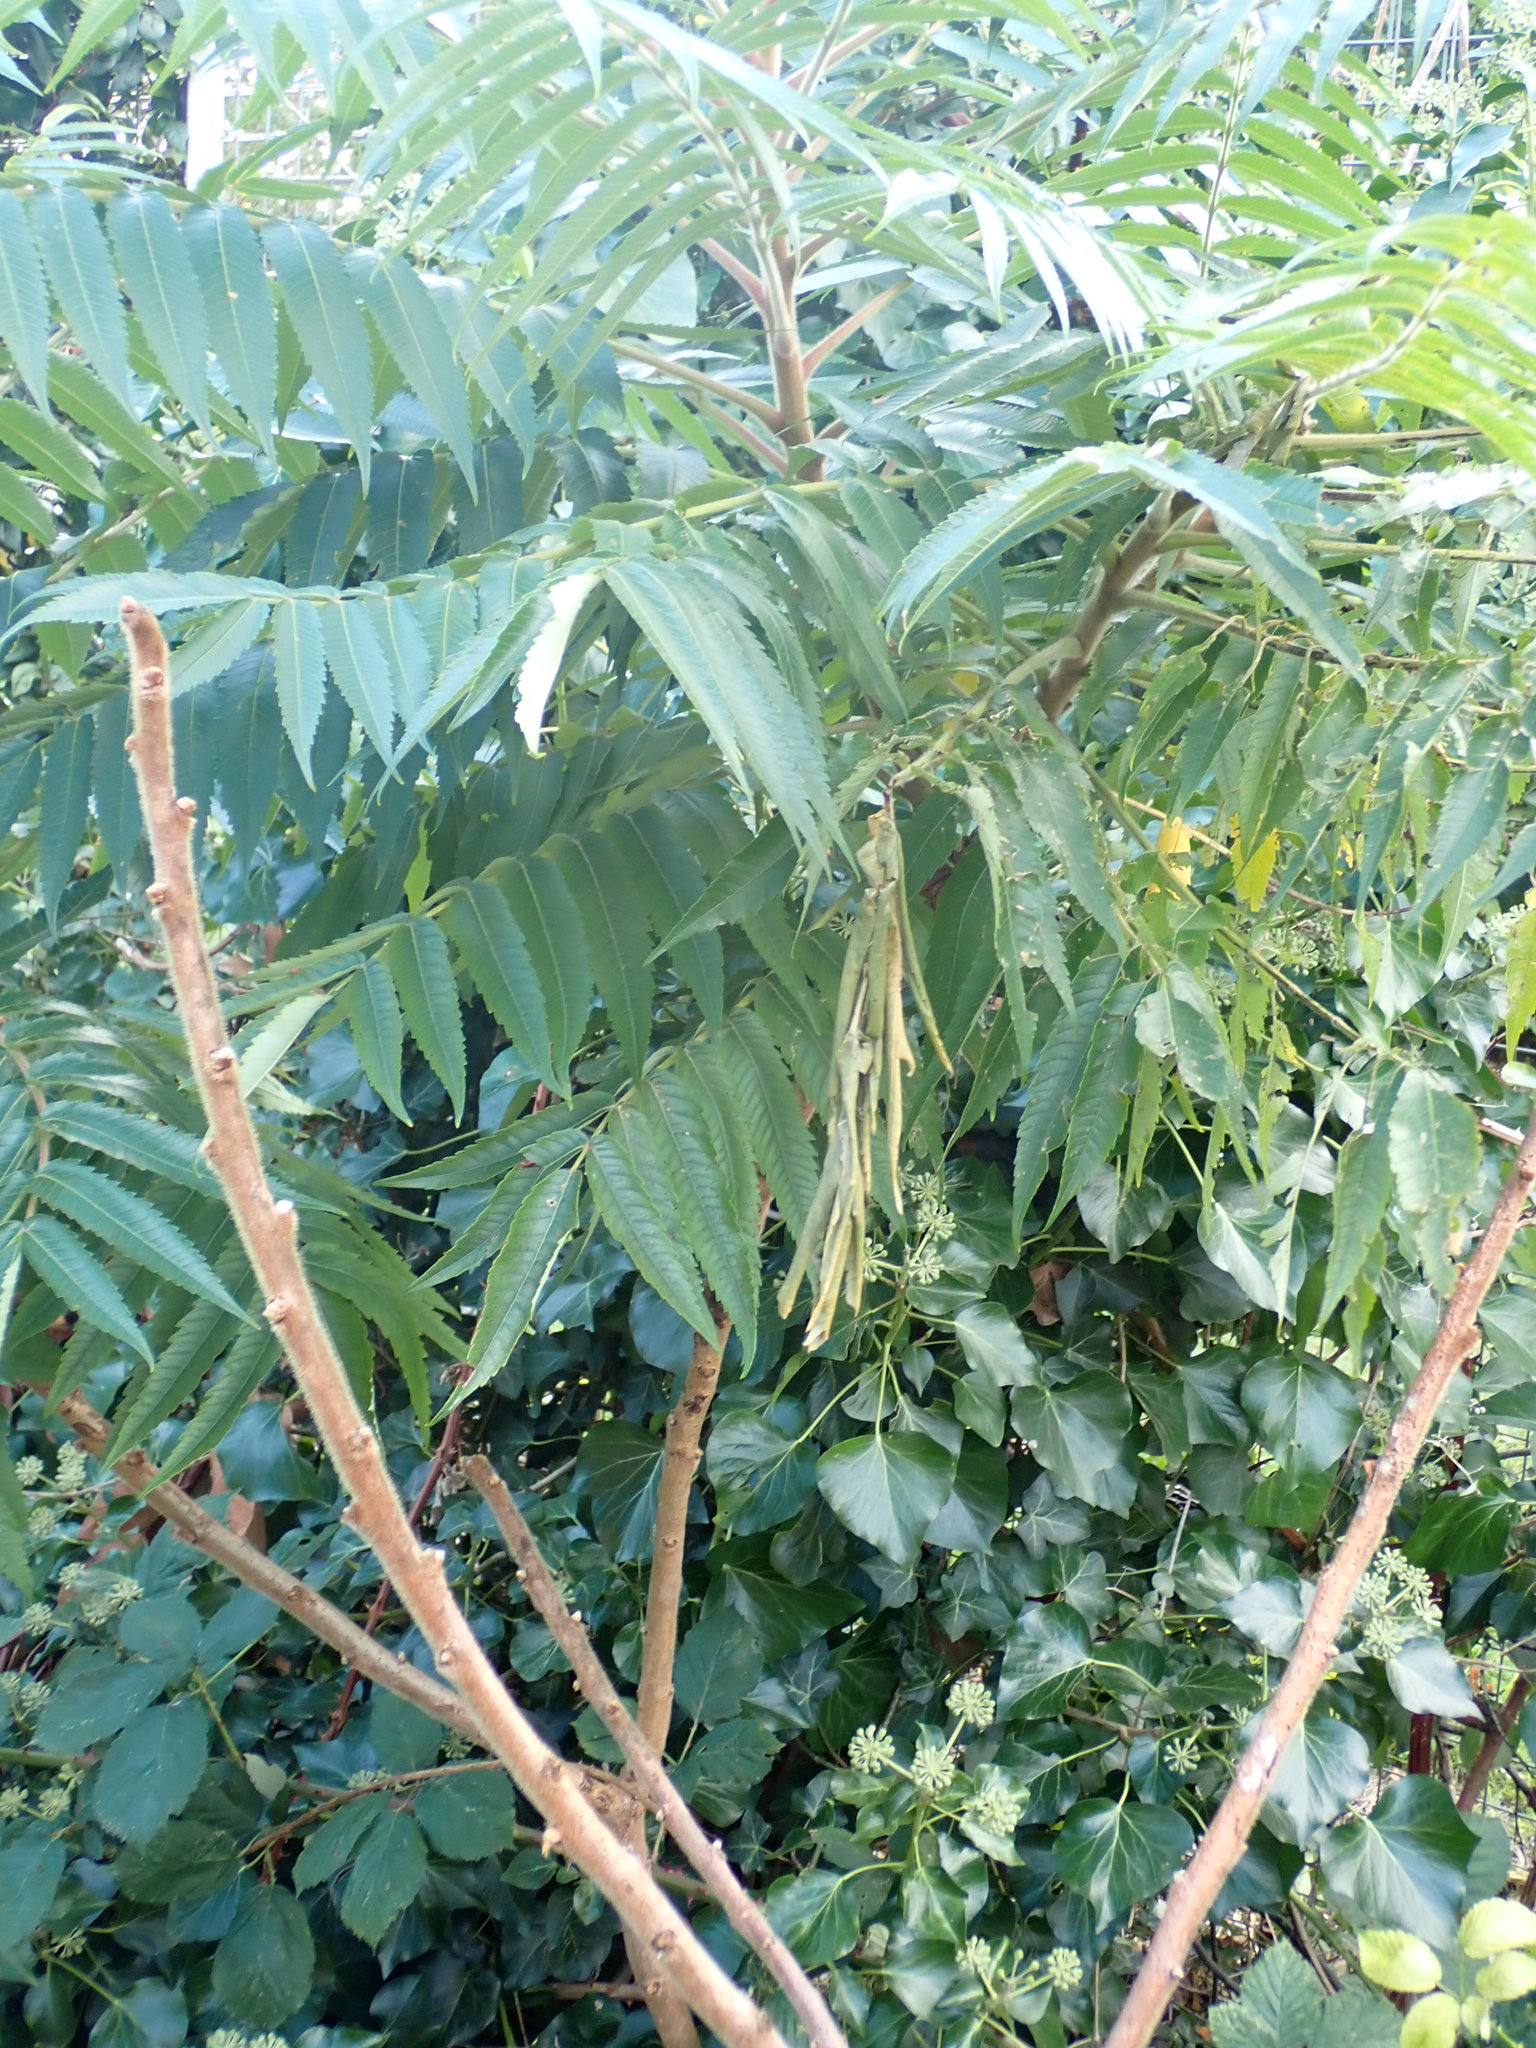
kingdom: Plantae
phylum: Tracheophyta
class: Magnoliopsida
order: Sapindales
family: Anacardiaceae
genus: Rhus
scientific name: Rhus typhina
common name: Staghorn sumac
